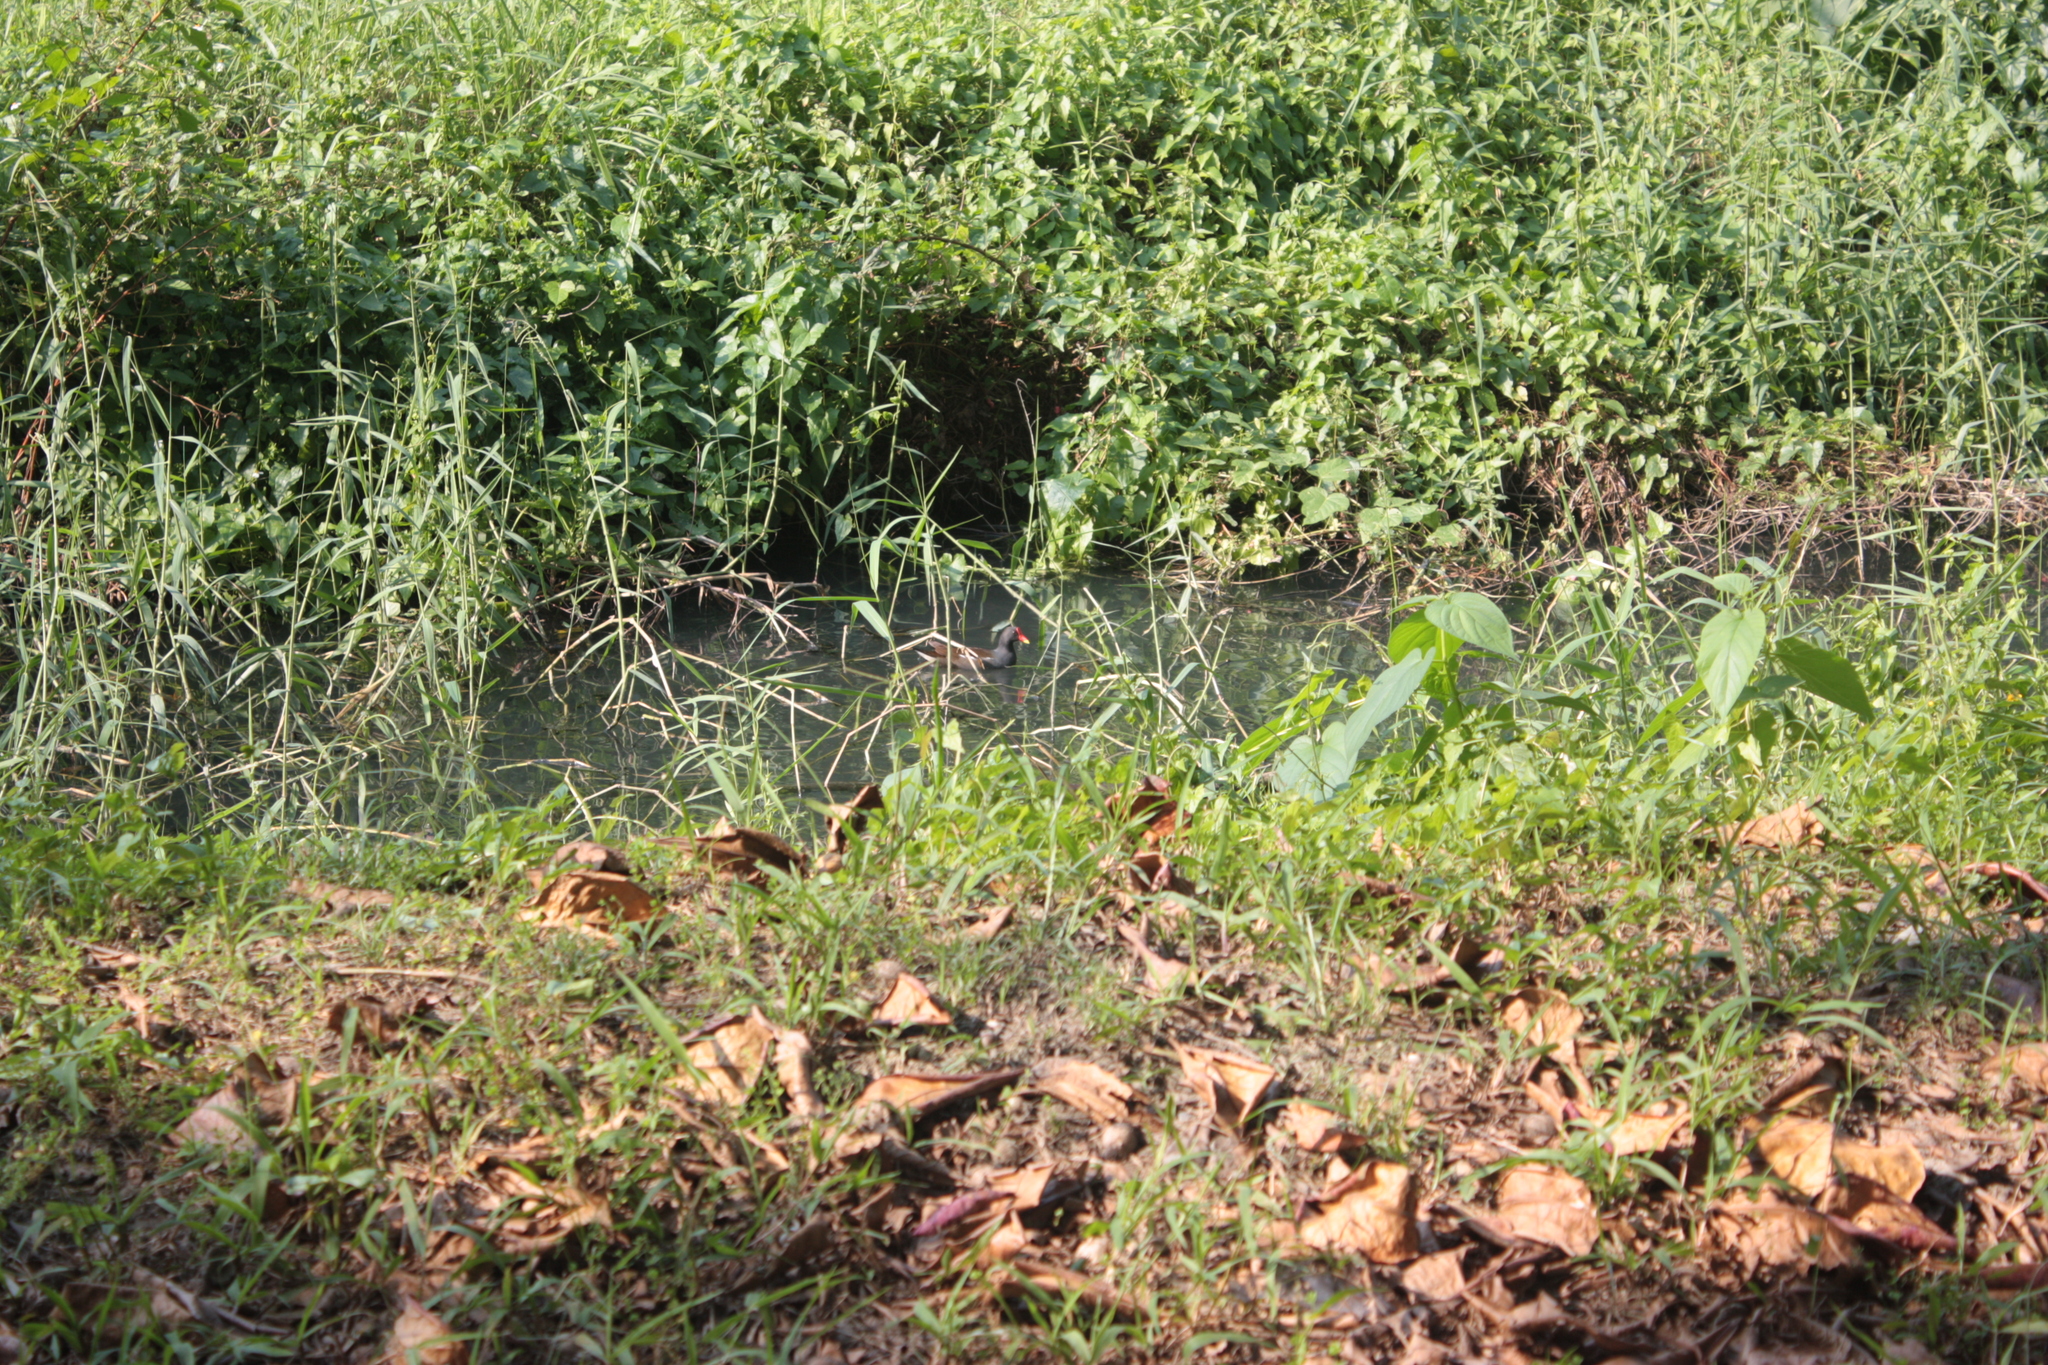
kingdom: Animalia
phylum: Chordata
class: Aves
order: Gruiformes
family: Rallidae
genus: Gallinula
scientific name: Gallinula chloropus
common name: Common moorhen
